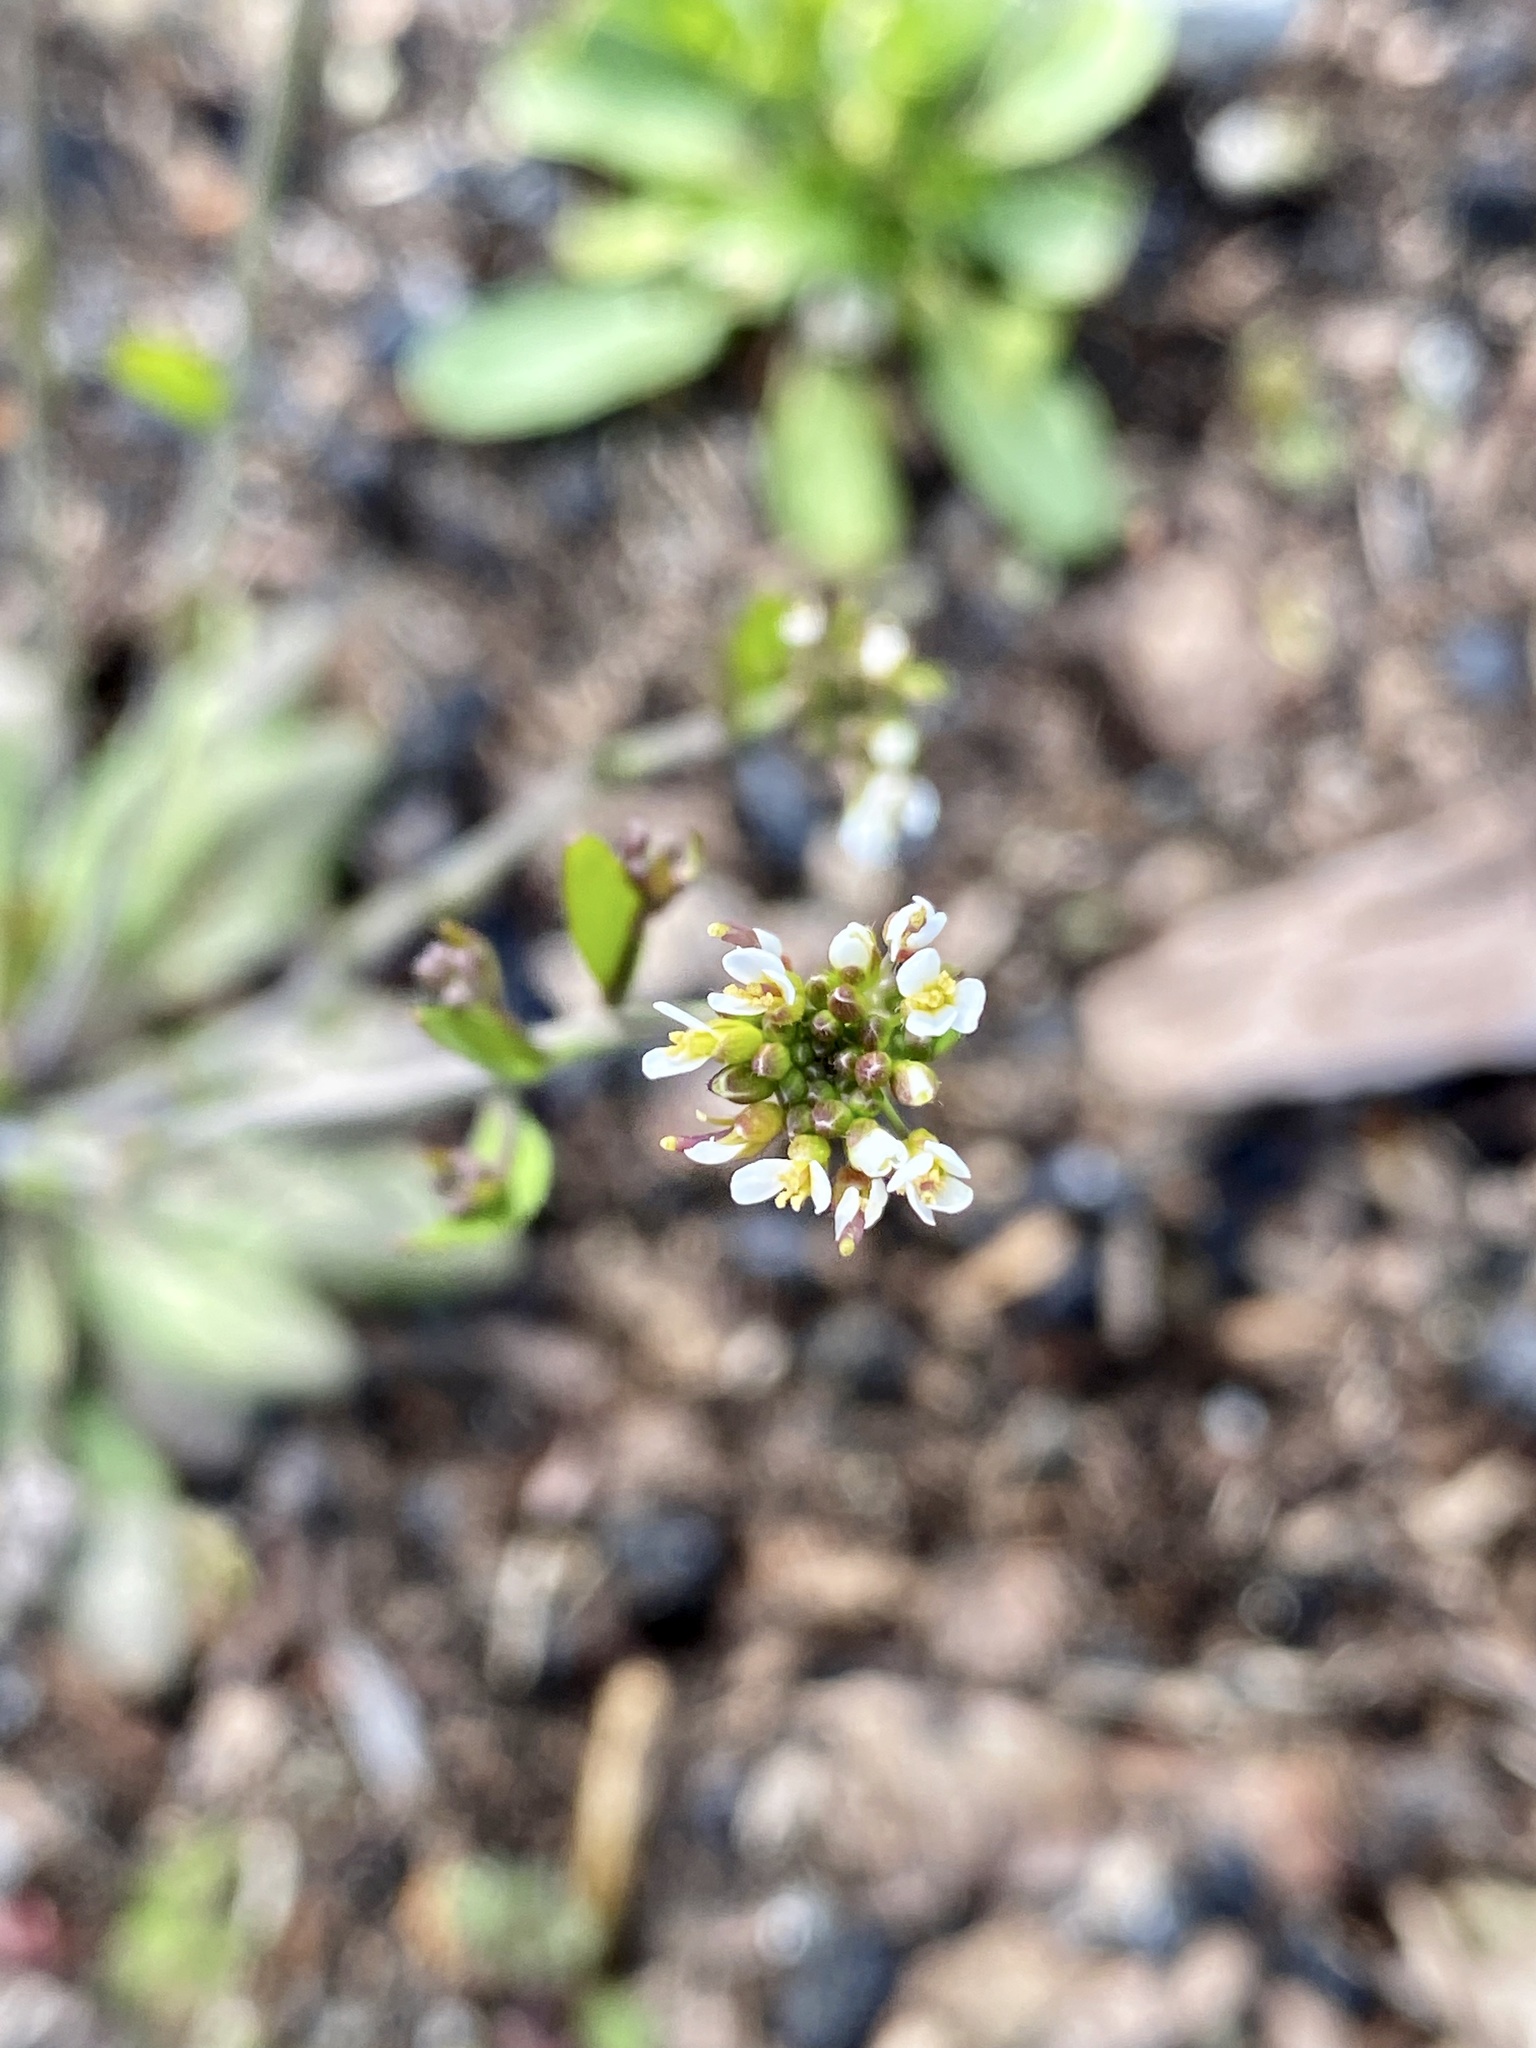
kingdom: Plantae
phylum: Tracheophyta
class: Magnoliopsida
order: Brassicales
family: Brassicaceae
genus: Arabidopsis
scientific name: Arabidopsis thaliana
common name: Thale cress
